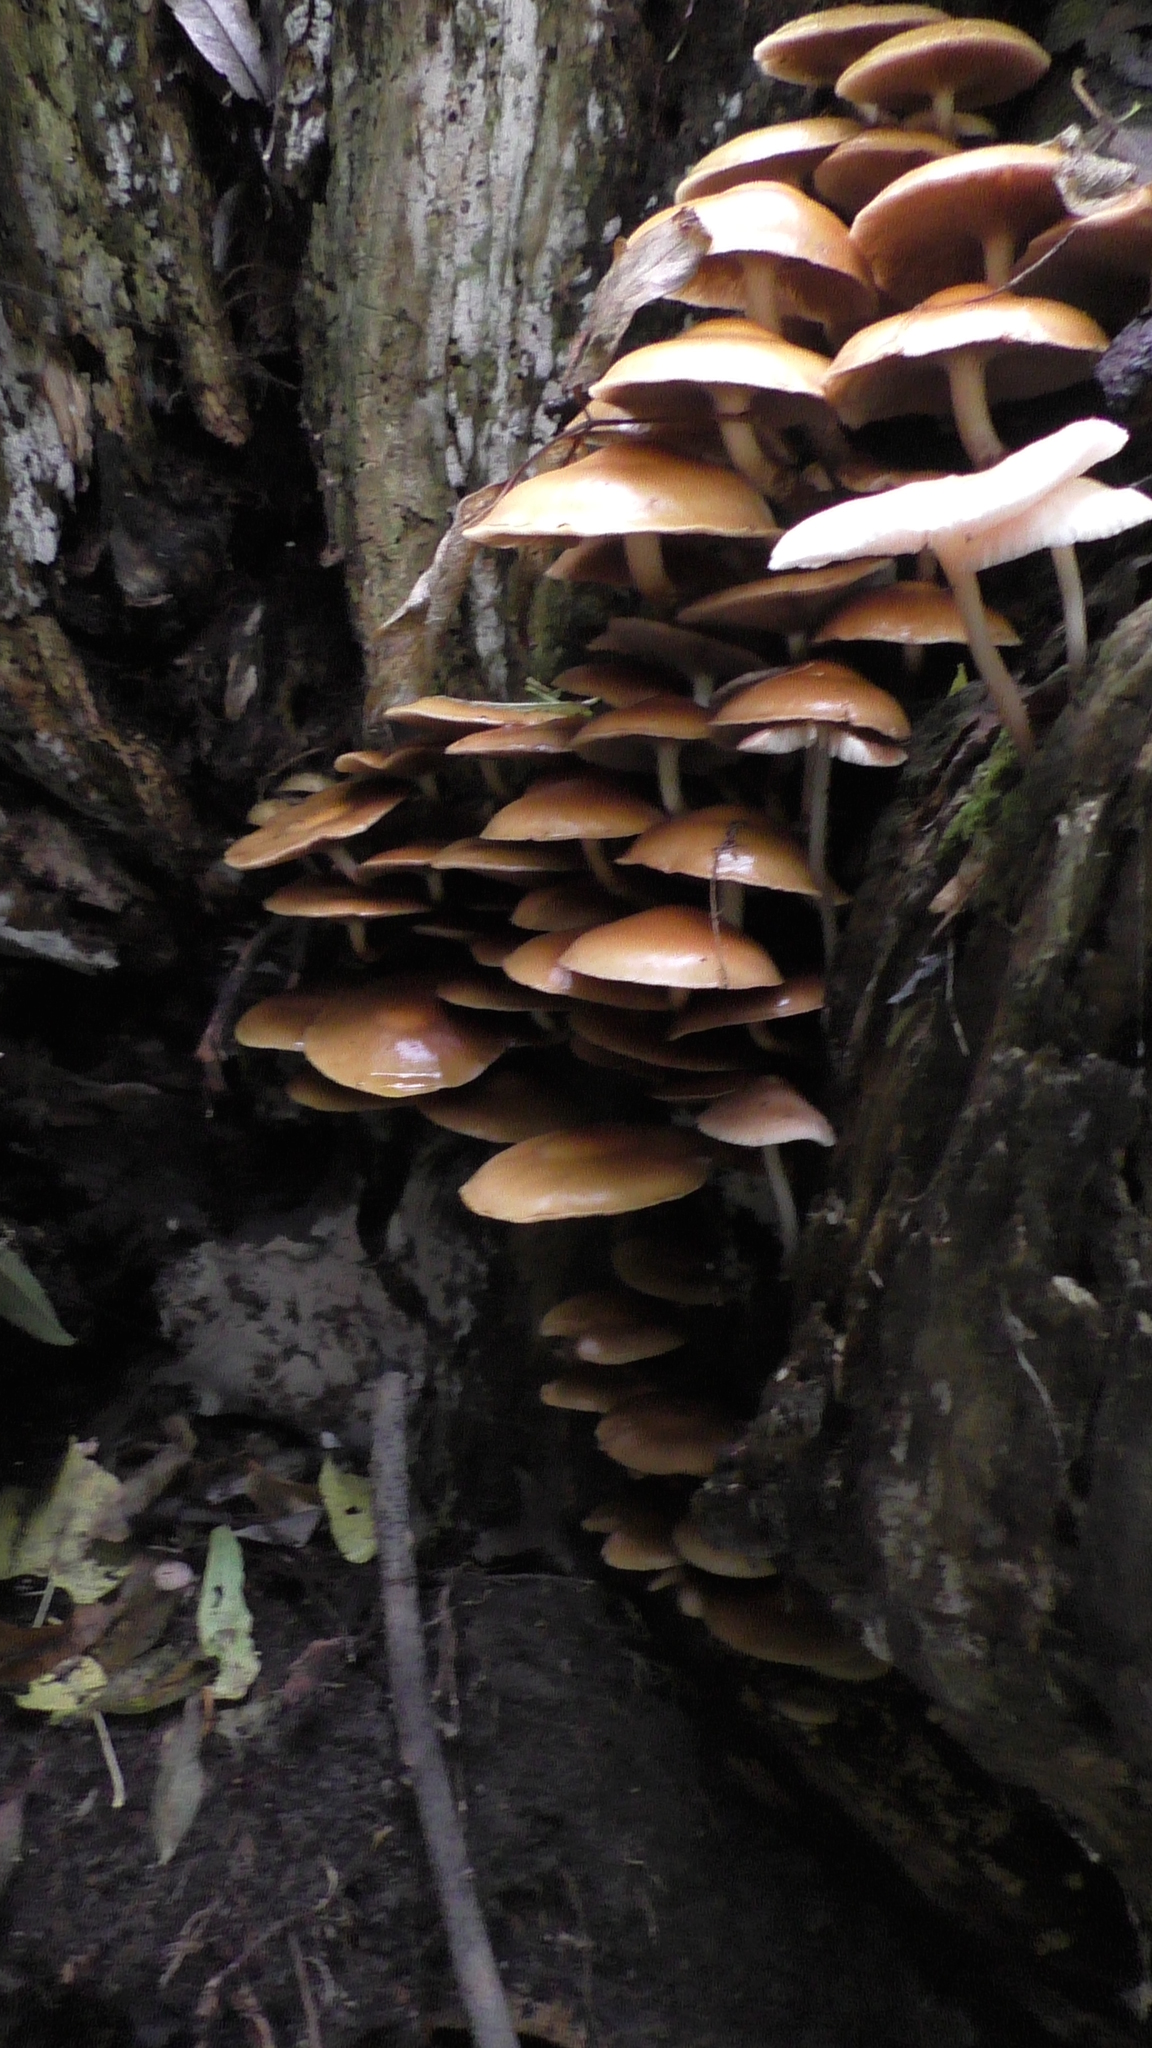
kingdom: Fungi
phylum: Basidiomycota
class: Agaricomycetes
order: Agaricales
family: Strophariaceae
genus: Kuehneromyces
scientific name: Kuehneromyces mutabilis
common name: Sheathed woodtuft
